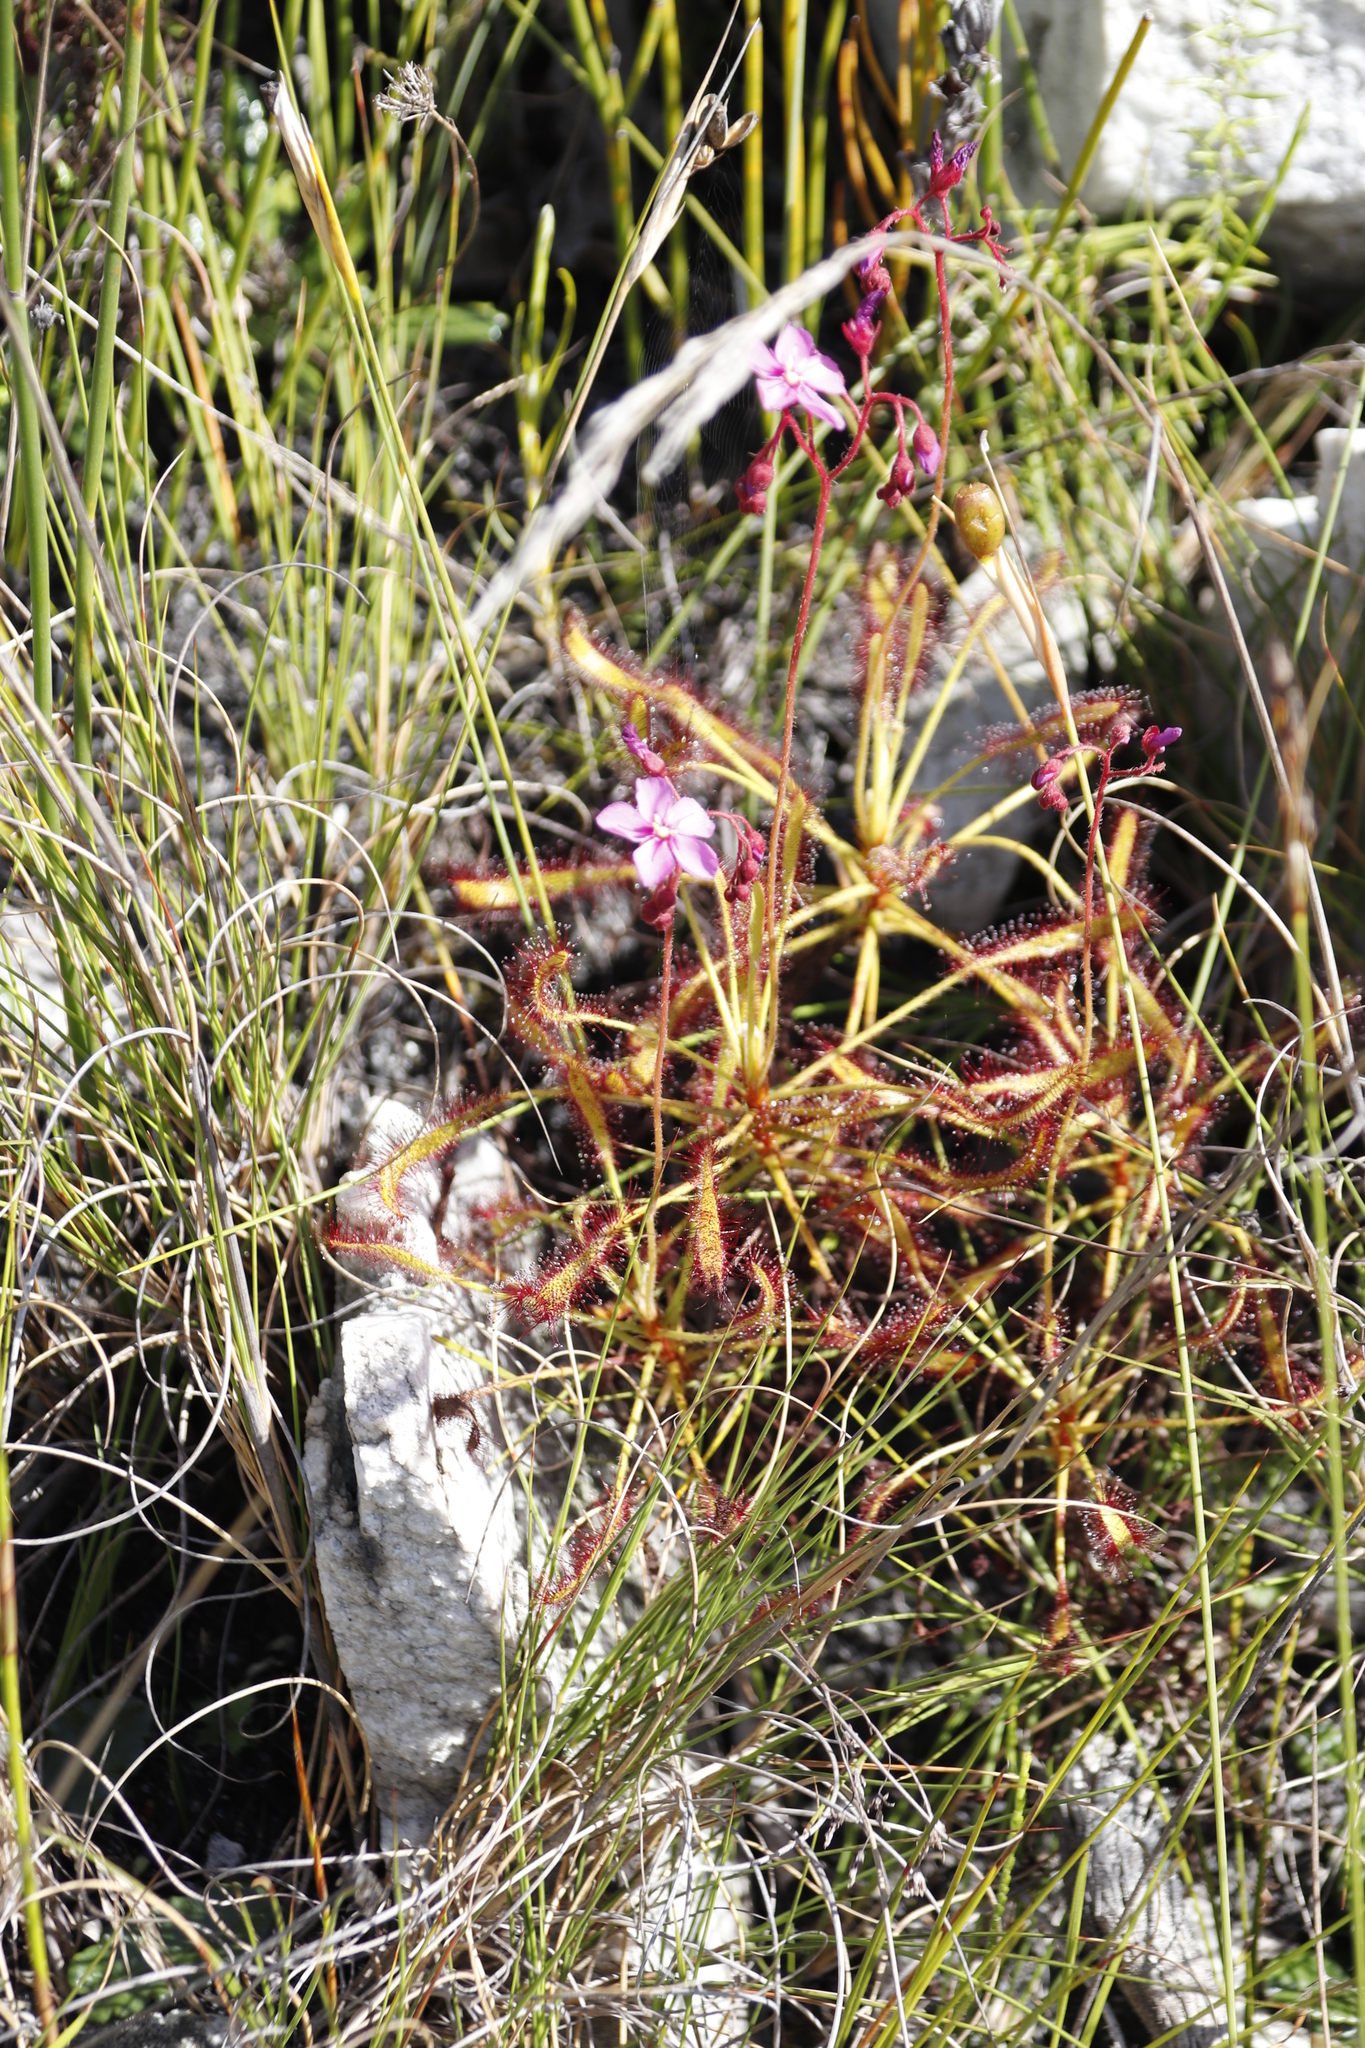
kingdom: Plantae
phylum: Tracheophyta
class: Magnoliopsida
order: Caryophyllales
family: Droseraceae
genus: Drosera
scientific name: Drosera ramentacea
